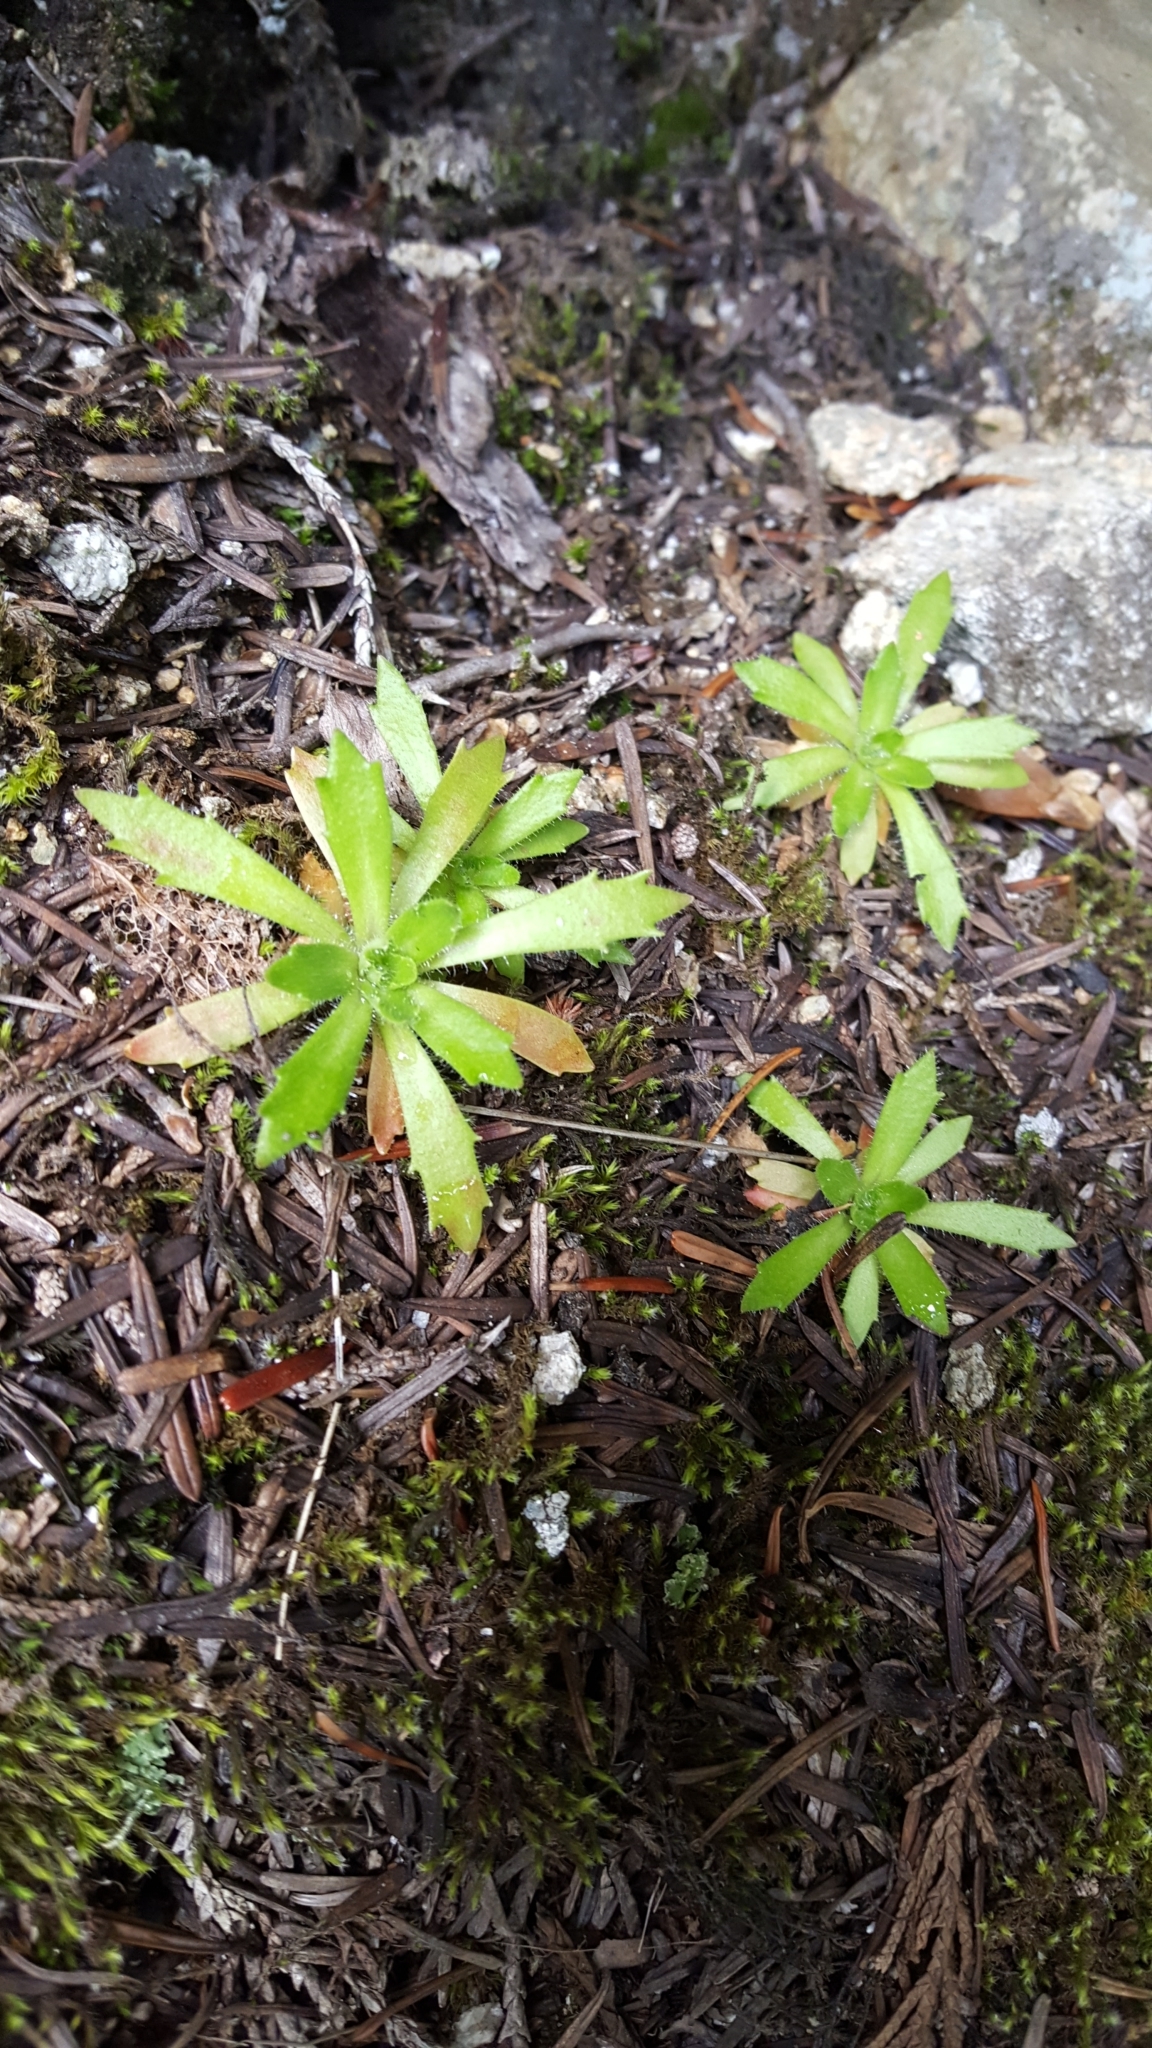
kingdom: Plantae
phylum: Tracheophyta
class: Magnoliopsida
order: Saxifragales
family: Saxifragaceae
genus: Micranthes
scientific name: Micranthes ferruginea
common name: Rusty saxifrage
